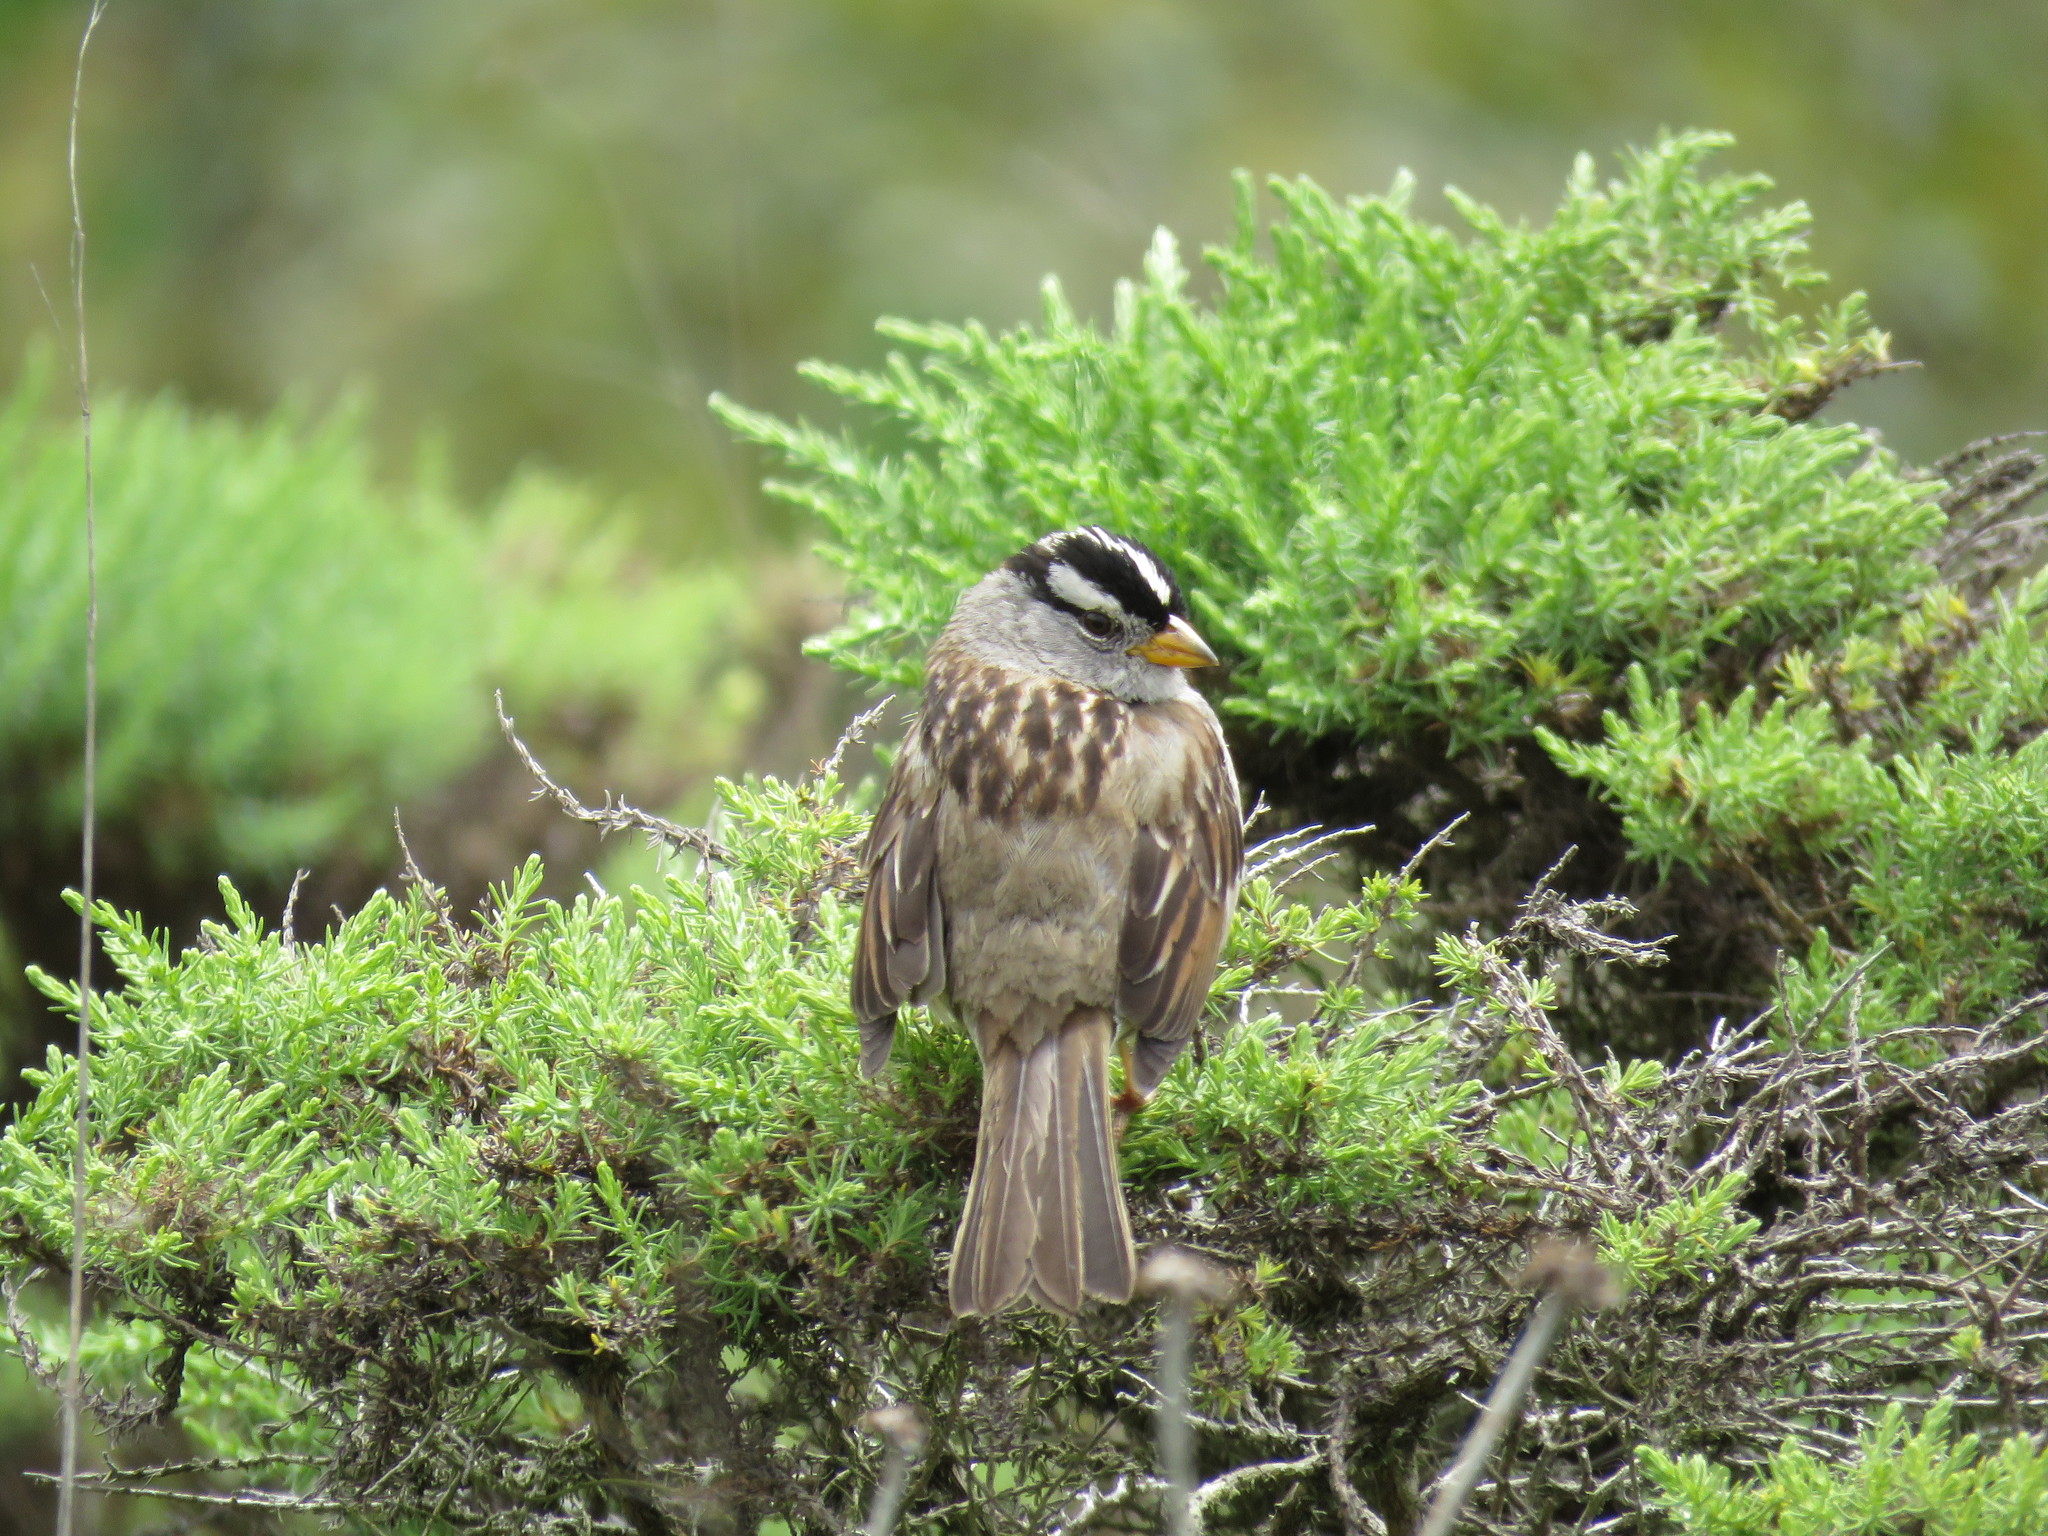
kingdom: Animalia
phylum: Chordata
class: Aves
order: Passeriformes
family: Passerellidae
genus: Zonotrichia
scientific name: Zonotrichia leucophrys
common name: White-crowned sparrow
